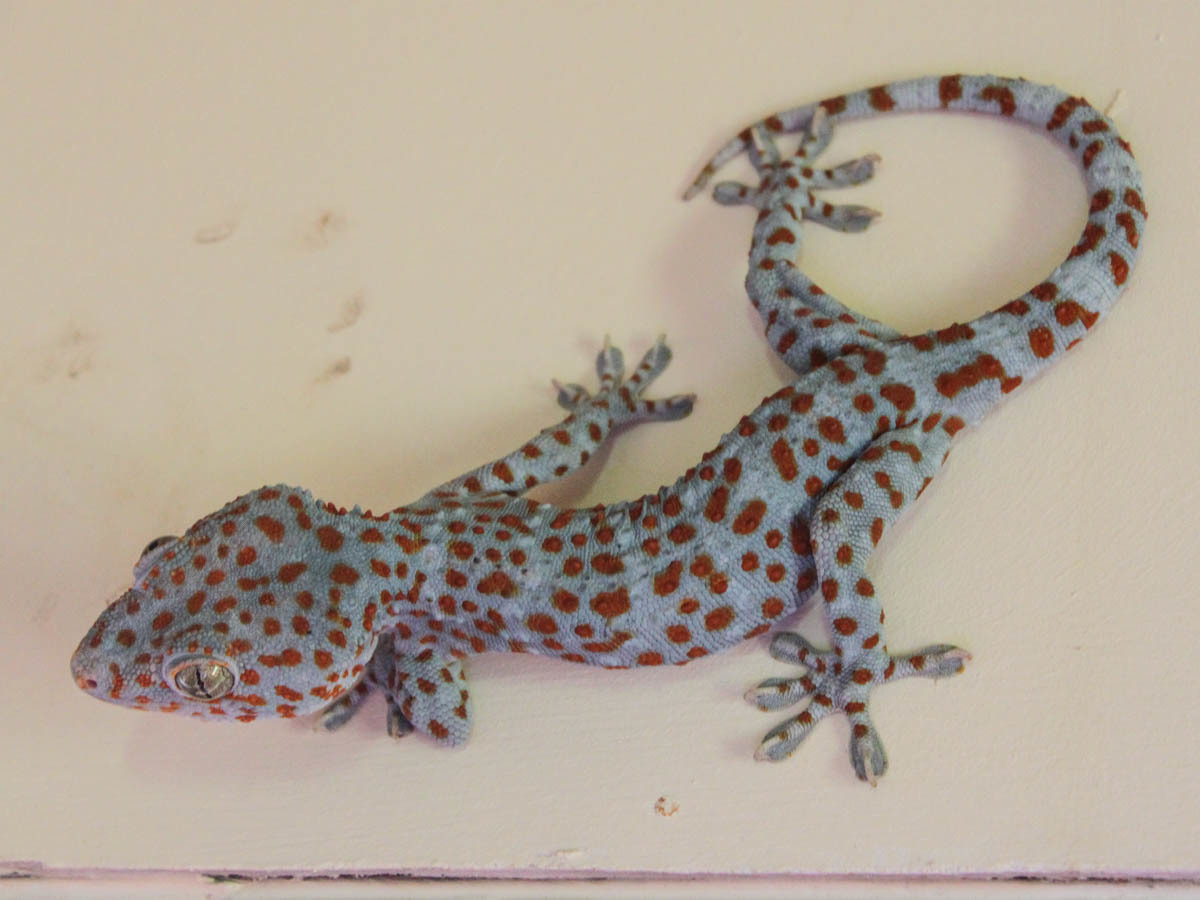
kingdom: Animalia
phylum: Chordata
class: Squamata
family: Gekkonidae
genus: Gekko
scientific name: Gekko gecko
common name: Tokay gecko
